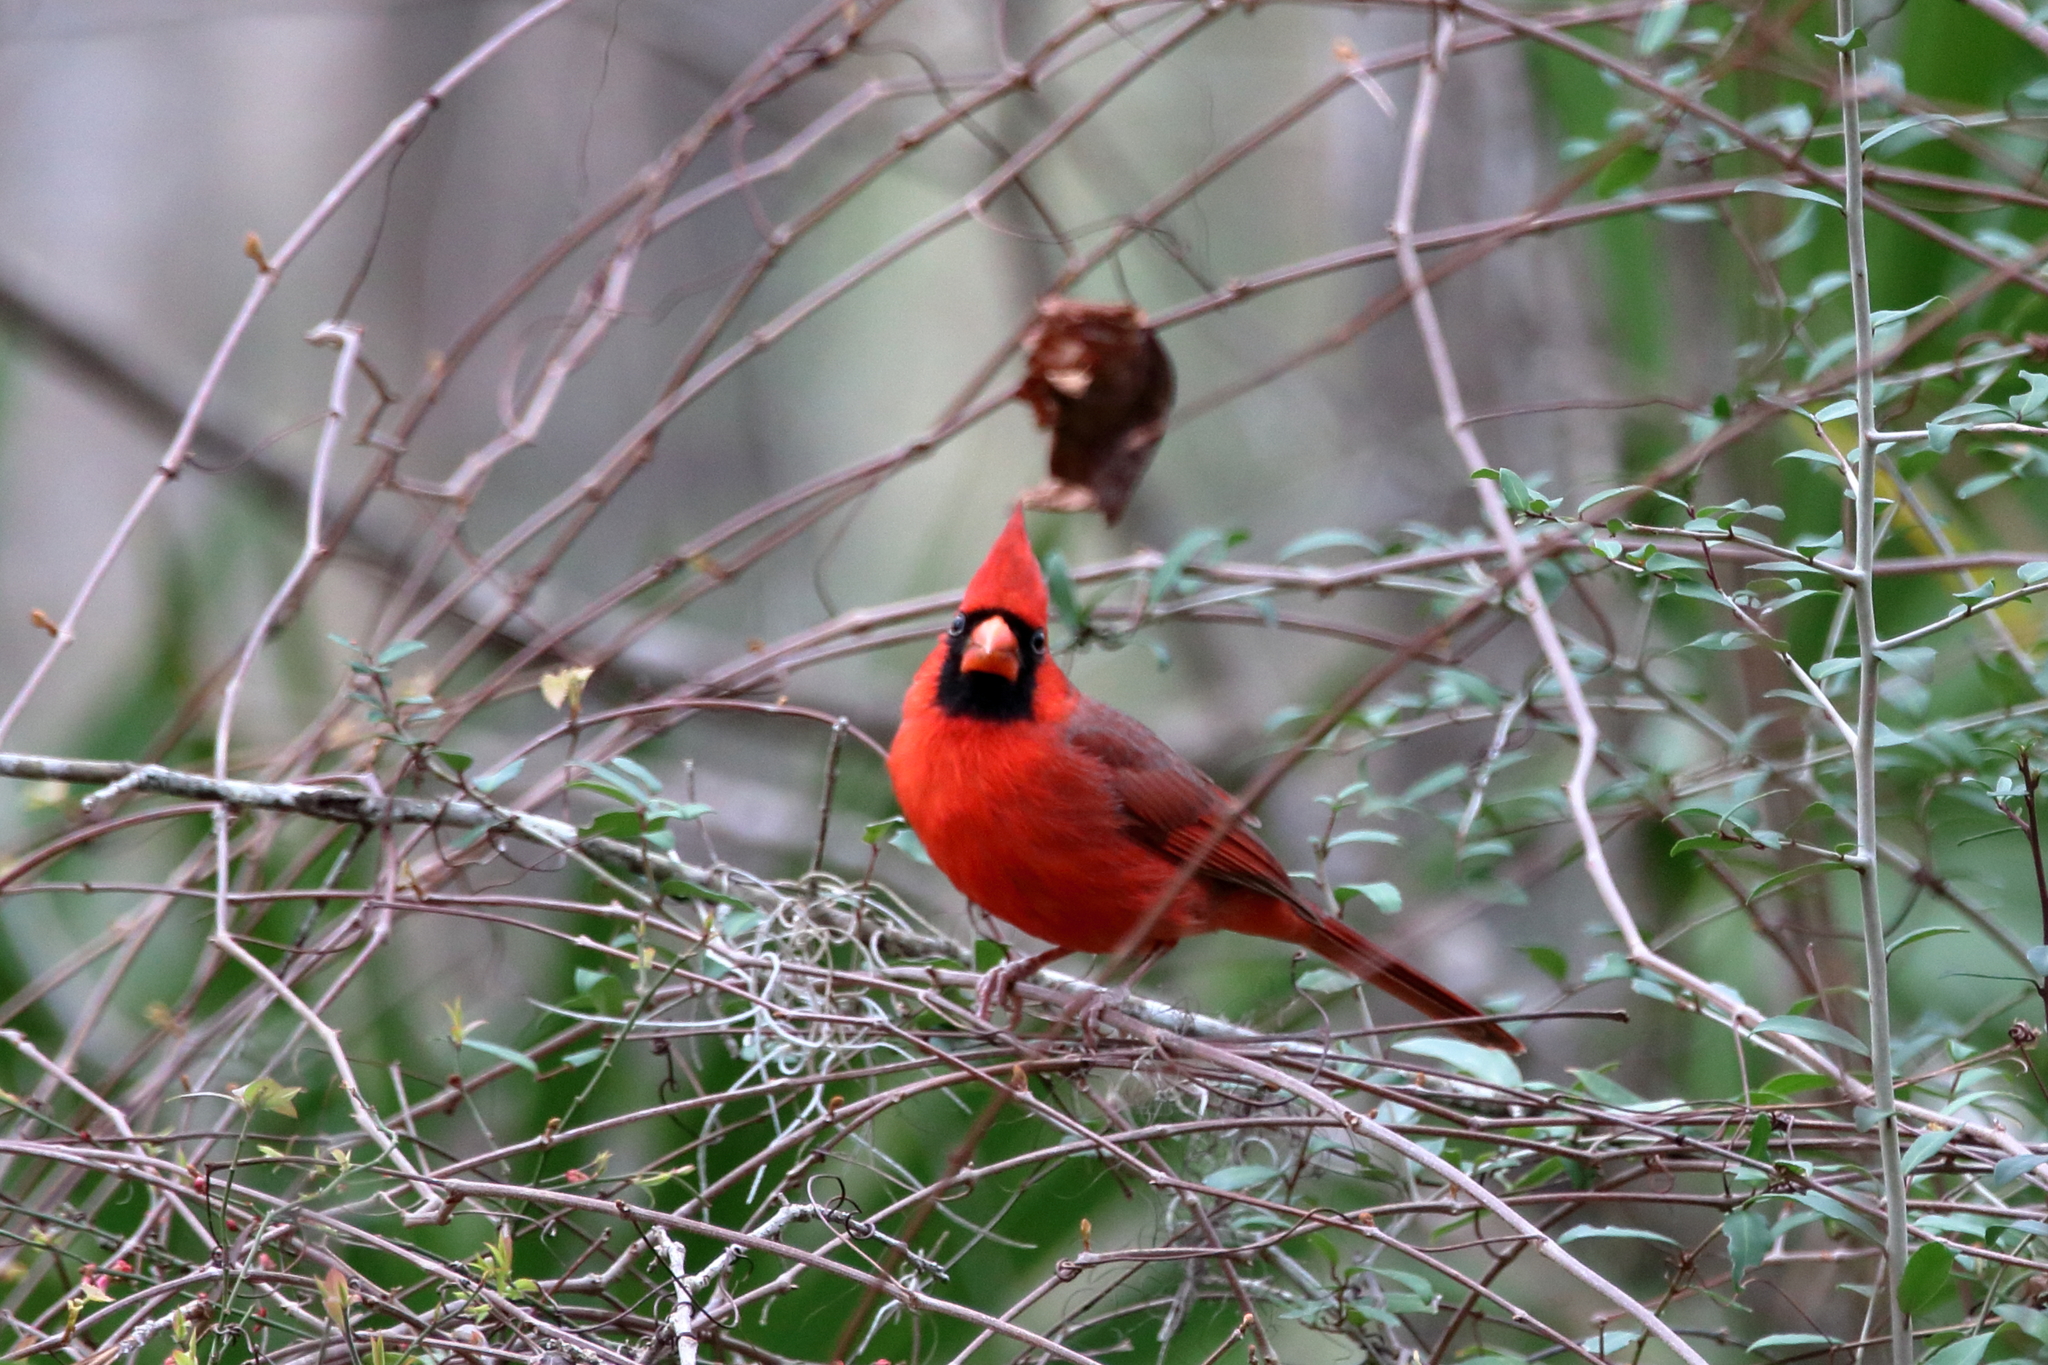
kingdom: Animalia
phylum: Chordata
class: Aves
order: Passeriformes
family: Cardinalidae
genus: Cardinalis
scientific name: Cardinalis cardinalis
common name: Northern cardinal
